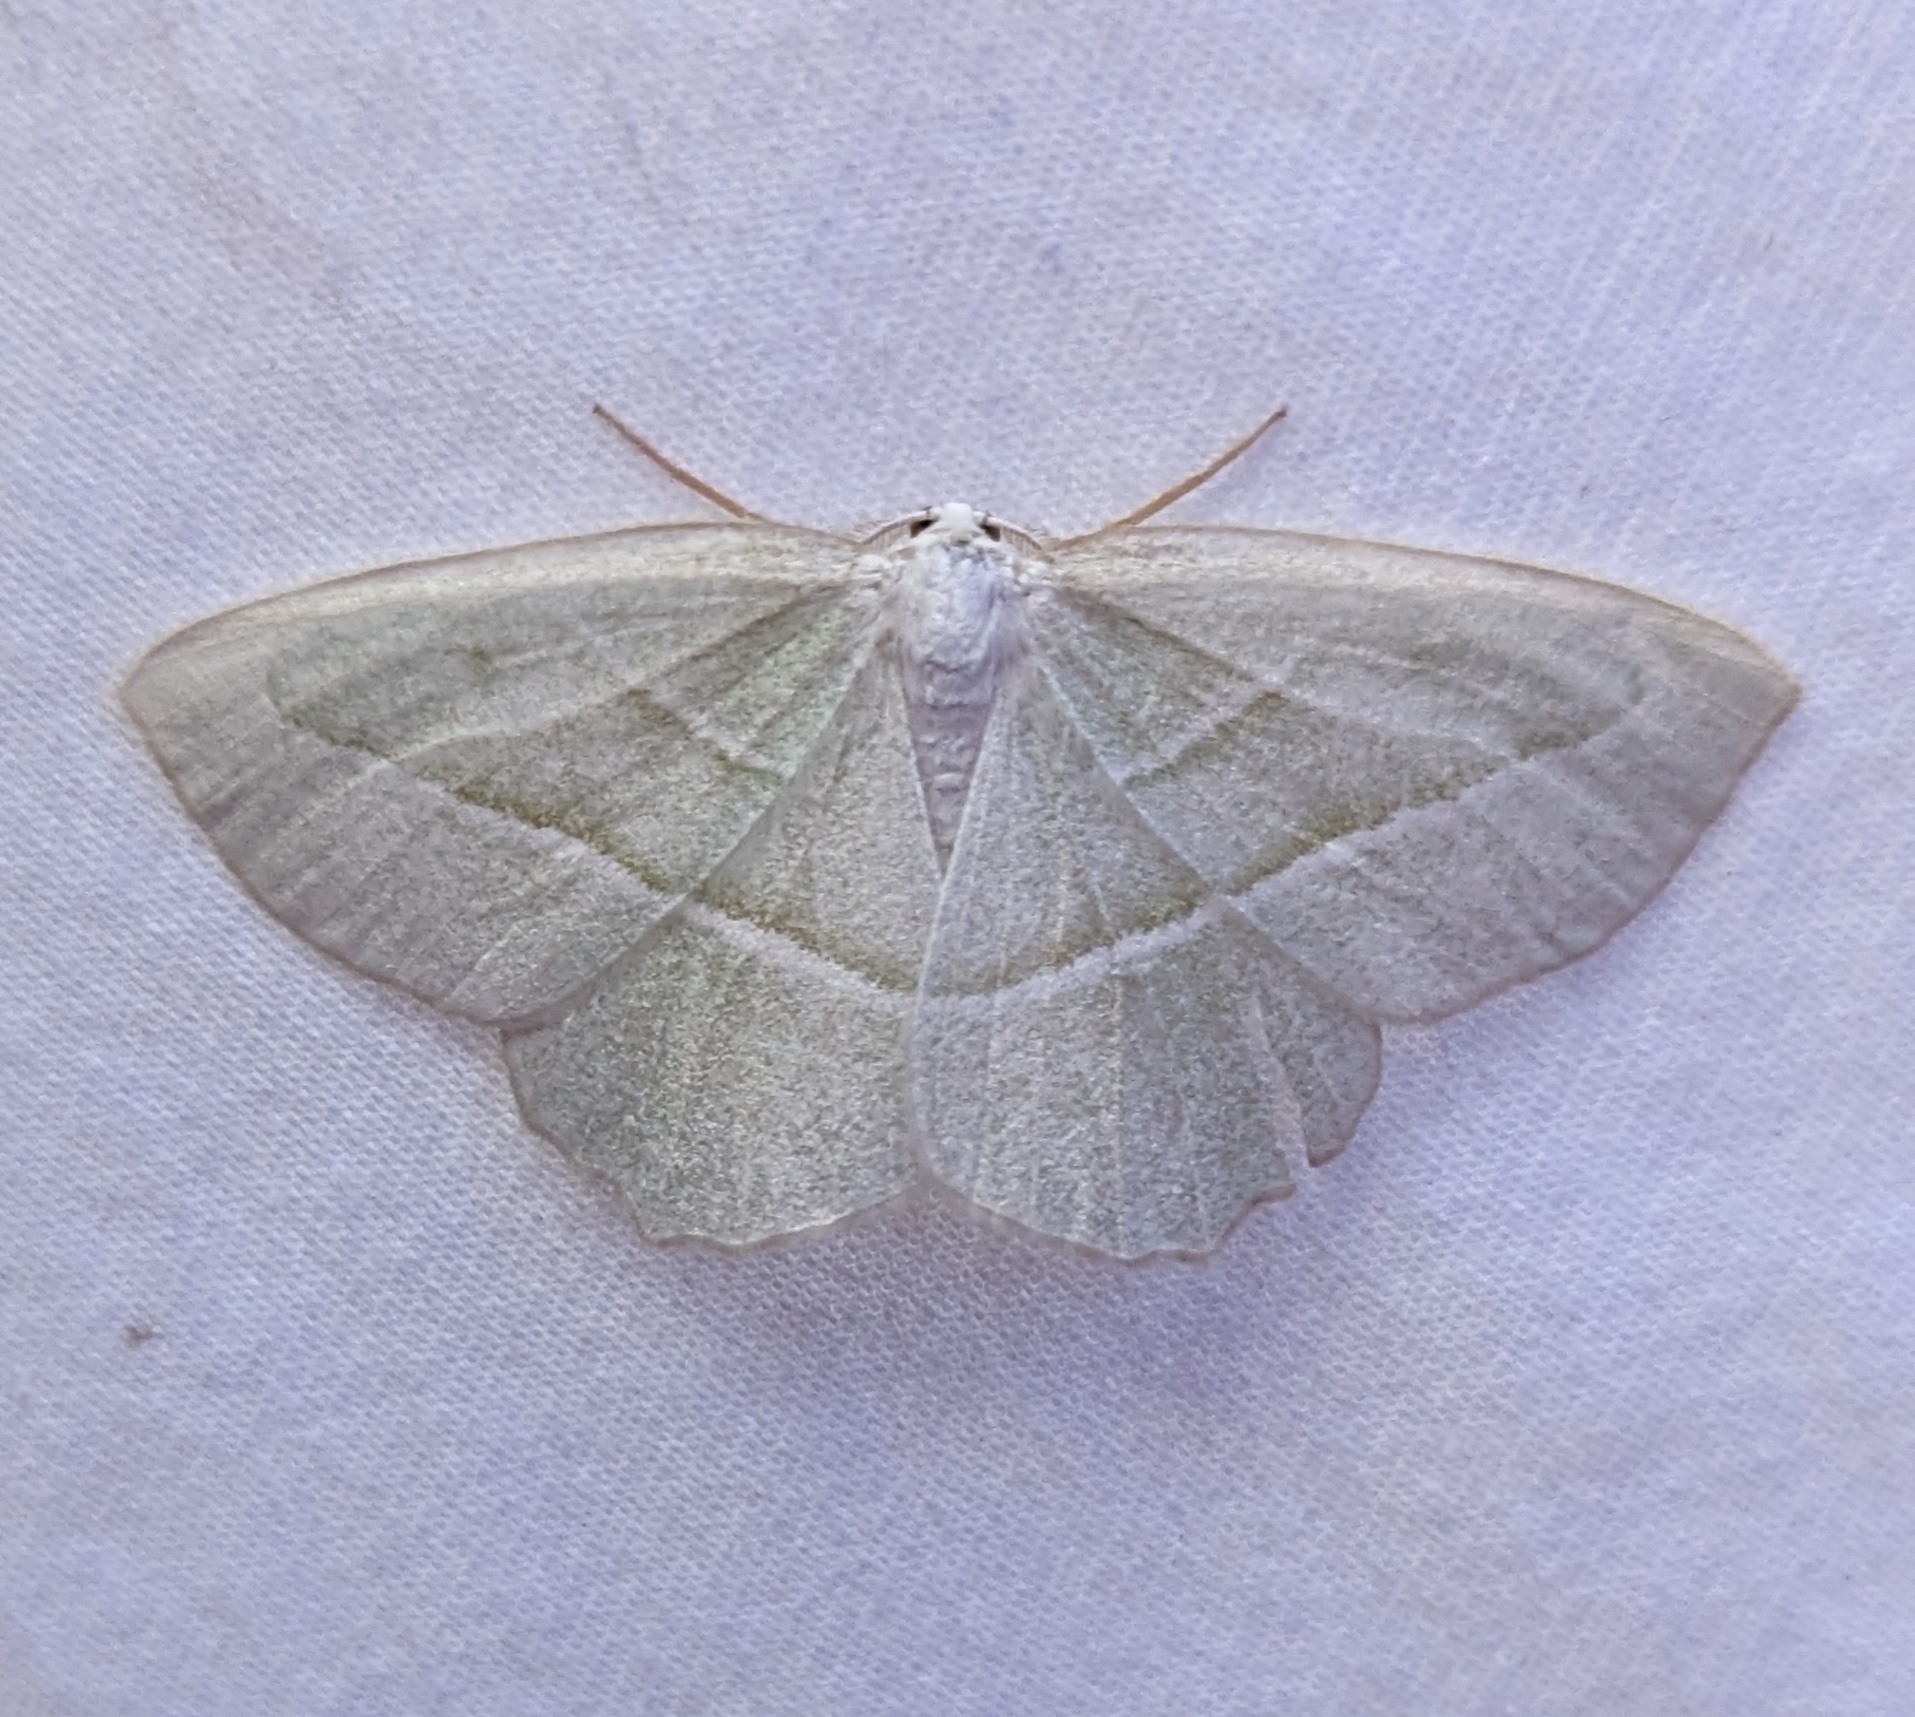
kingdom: Animalia
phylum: Arthropoda
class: Insecta
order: Lepidoptera
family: Geometridae
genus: Campaea
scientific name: Campaea perlata
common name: Fringed looper
